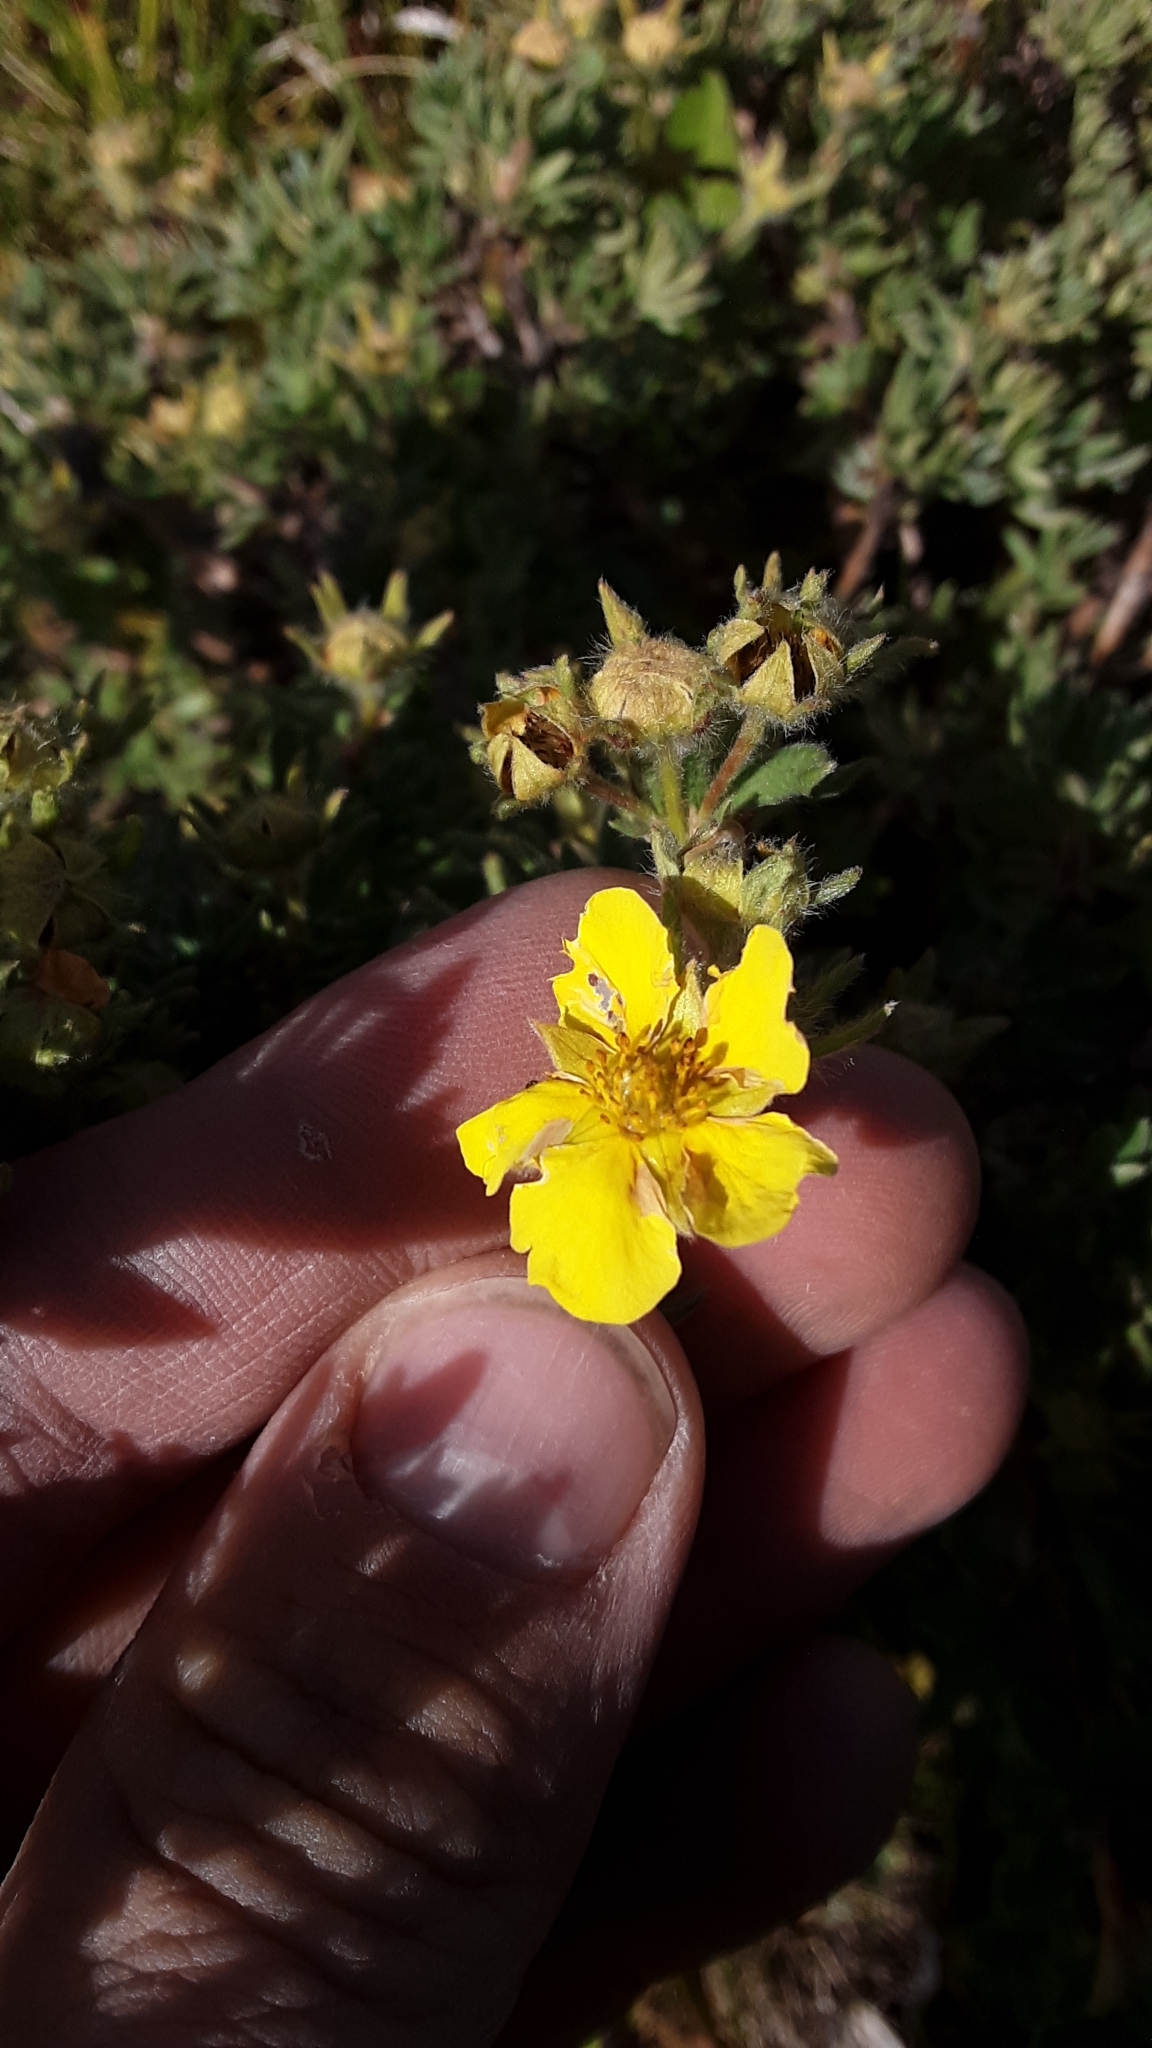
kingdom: Plantae
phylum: Tracheophyta
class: Magnoliopsida
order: Rosales
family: Rosaceae
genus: Dasiphora
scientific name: Dasiphora fruticosa
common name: Shrubby cinquefoil
